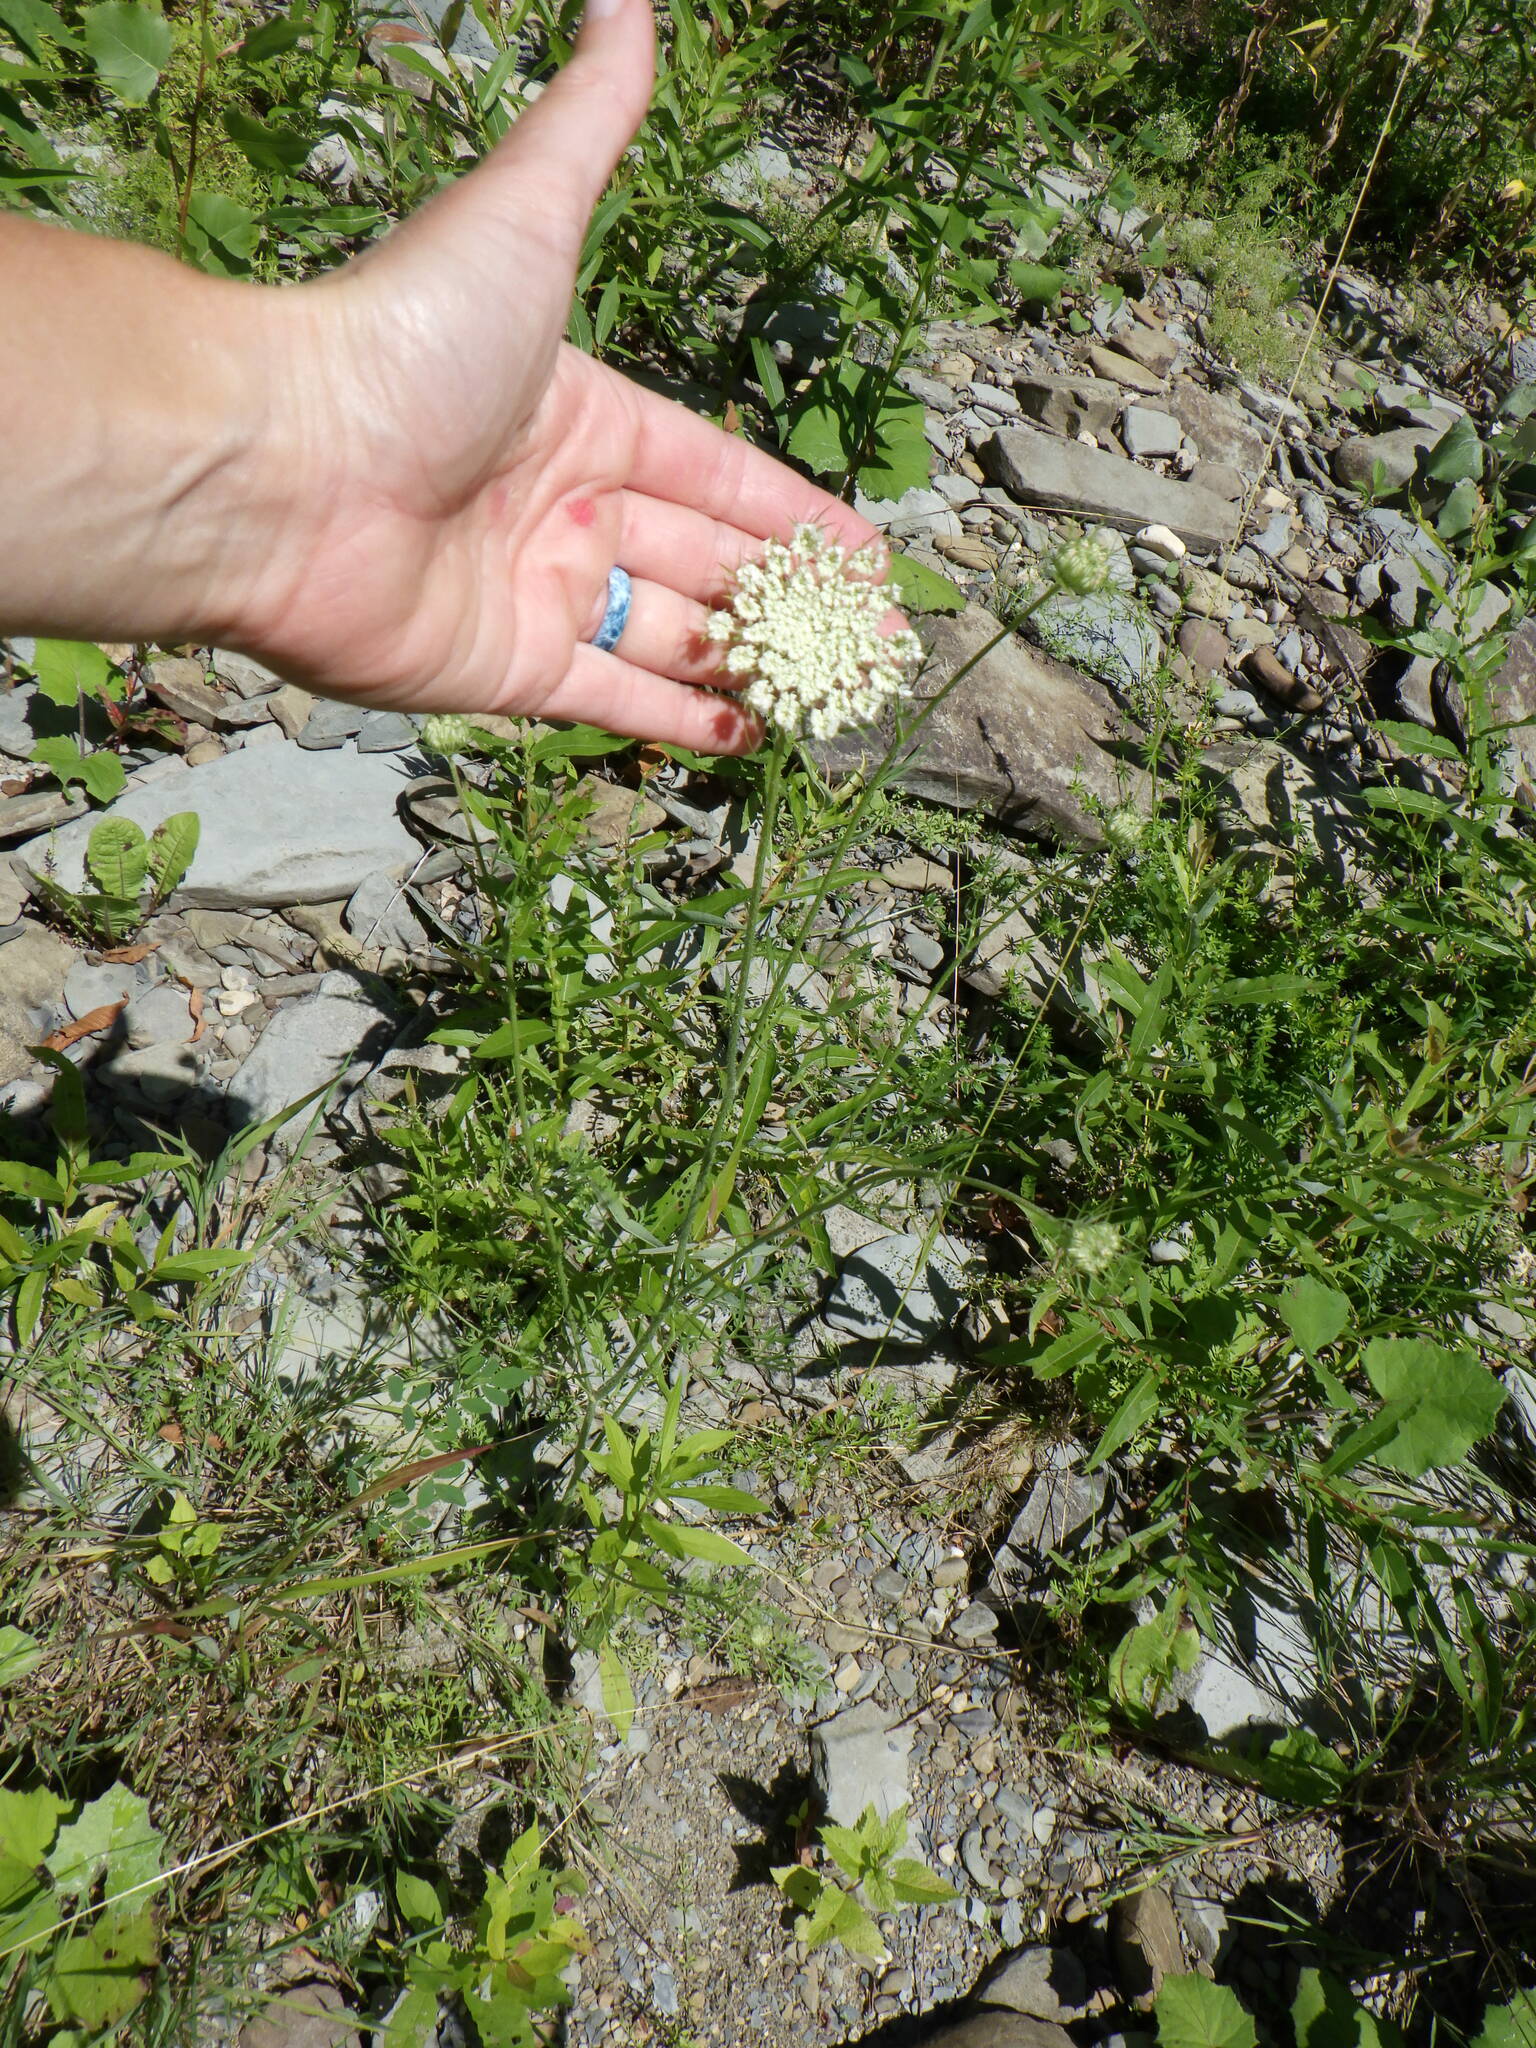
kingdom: Plantae
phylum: Tracheophyta
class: Magnoliopsida
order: Apiales
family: Apiaceae
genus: Daucus
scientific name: Daucus carota
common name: Wild carrot
